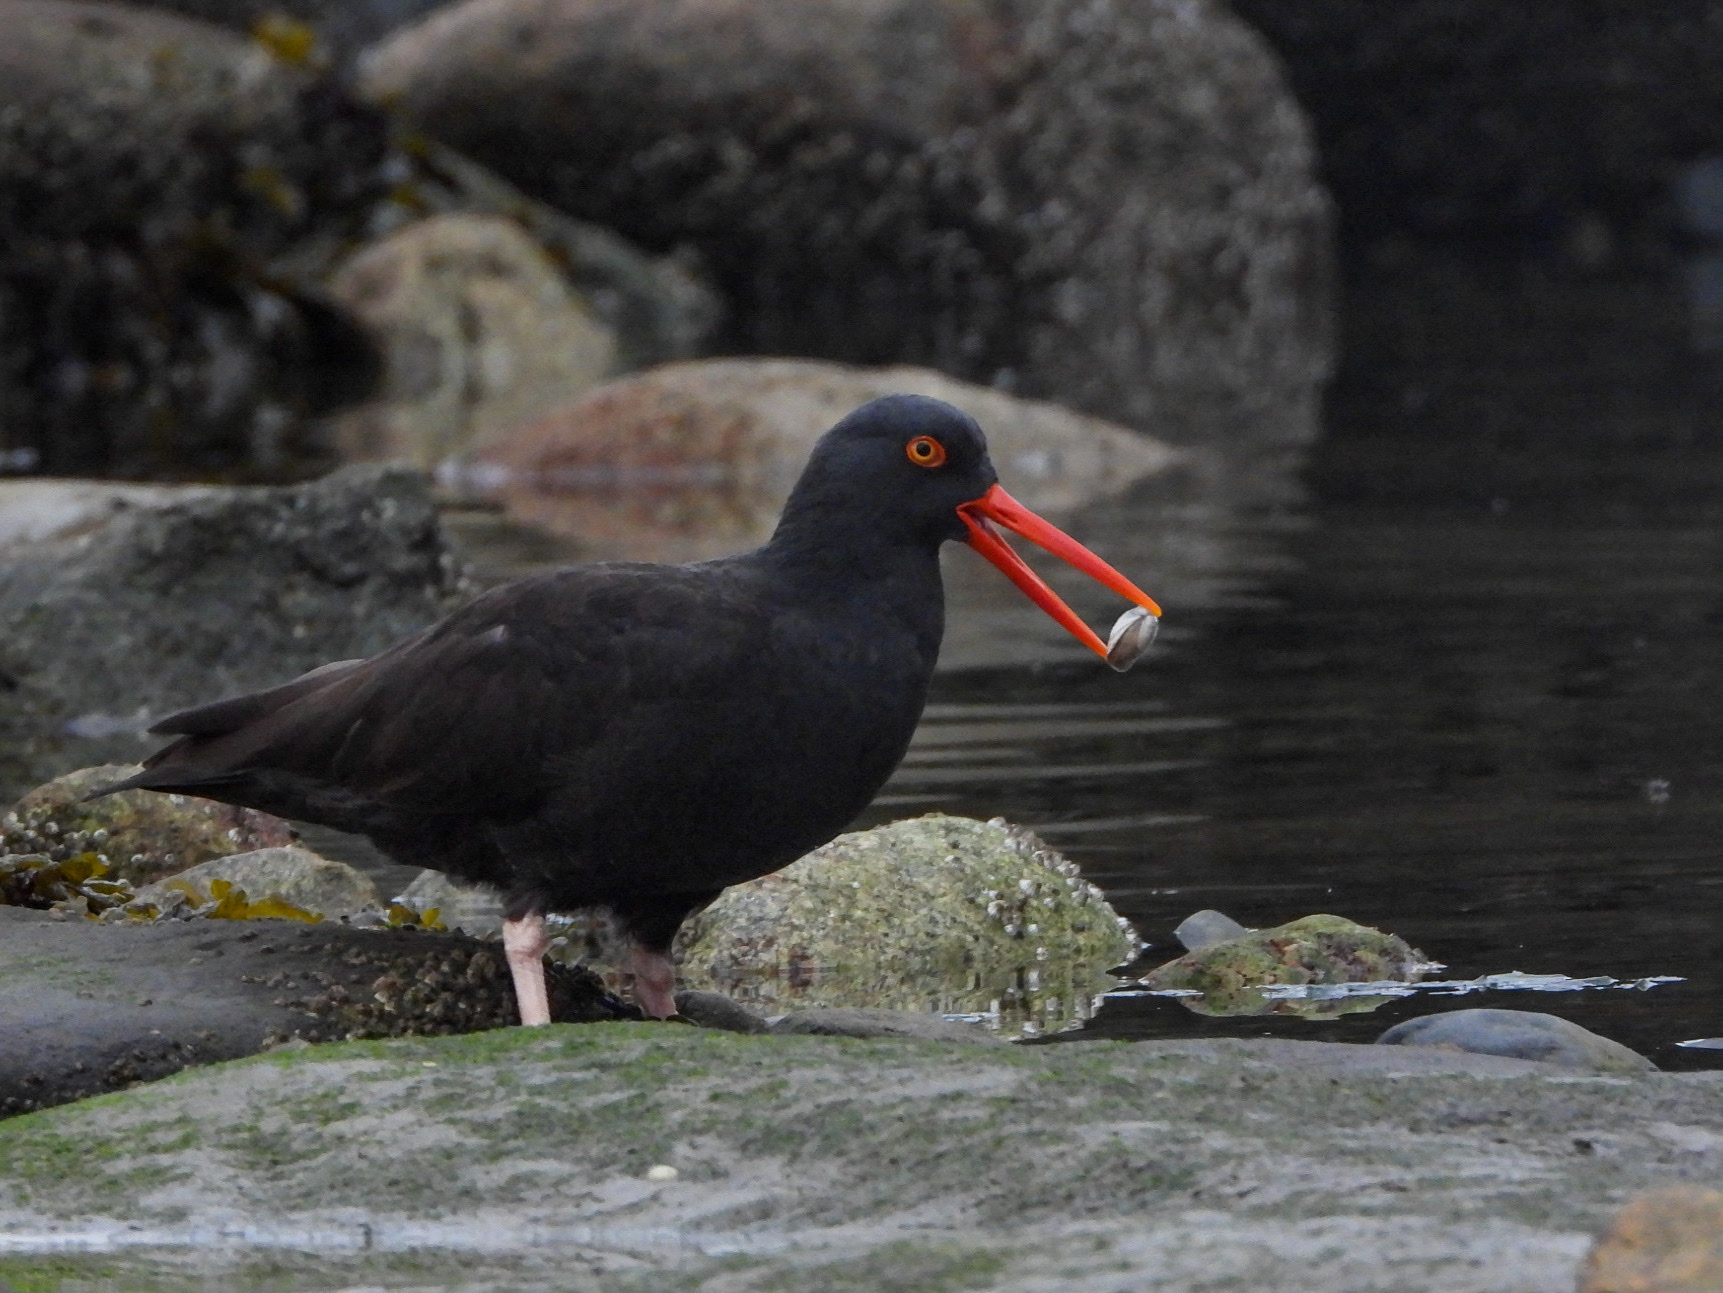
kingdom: Animalia
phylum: Chordata
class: Aves
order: Charadriiformes
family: Haematopodidae
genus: Haematopus
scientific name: Haematopus bachmani
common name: Black oystercatcher
